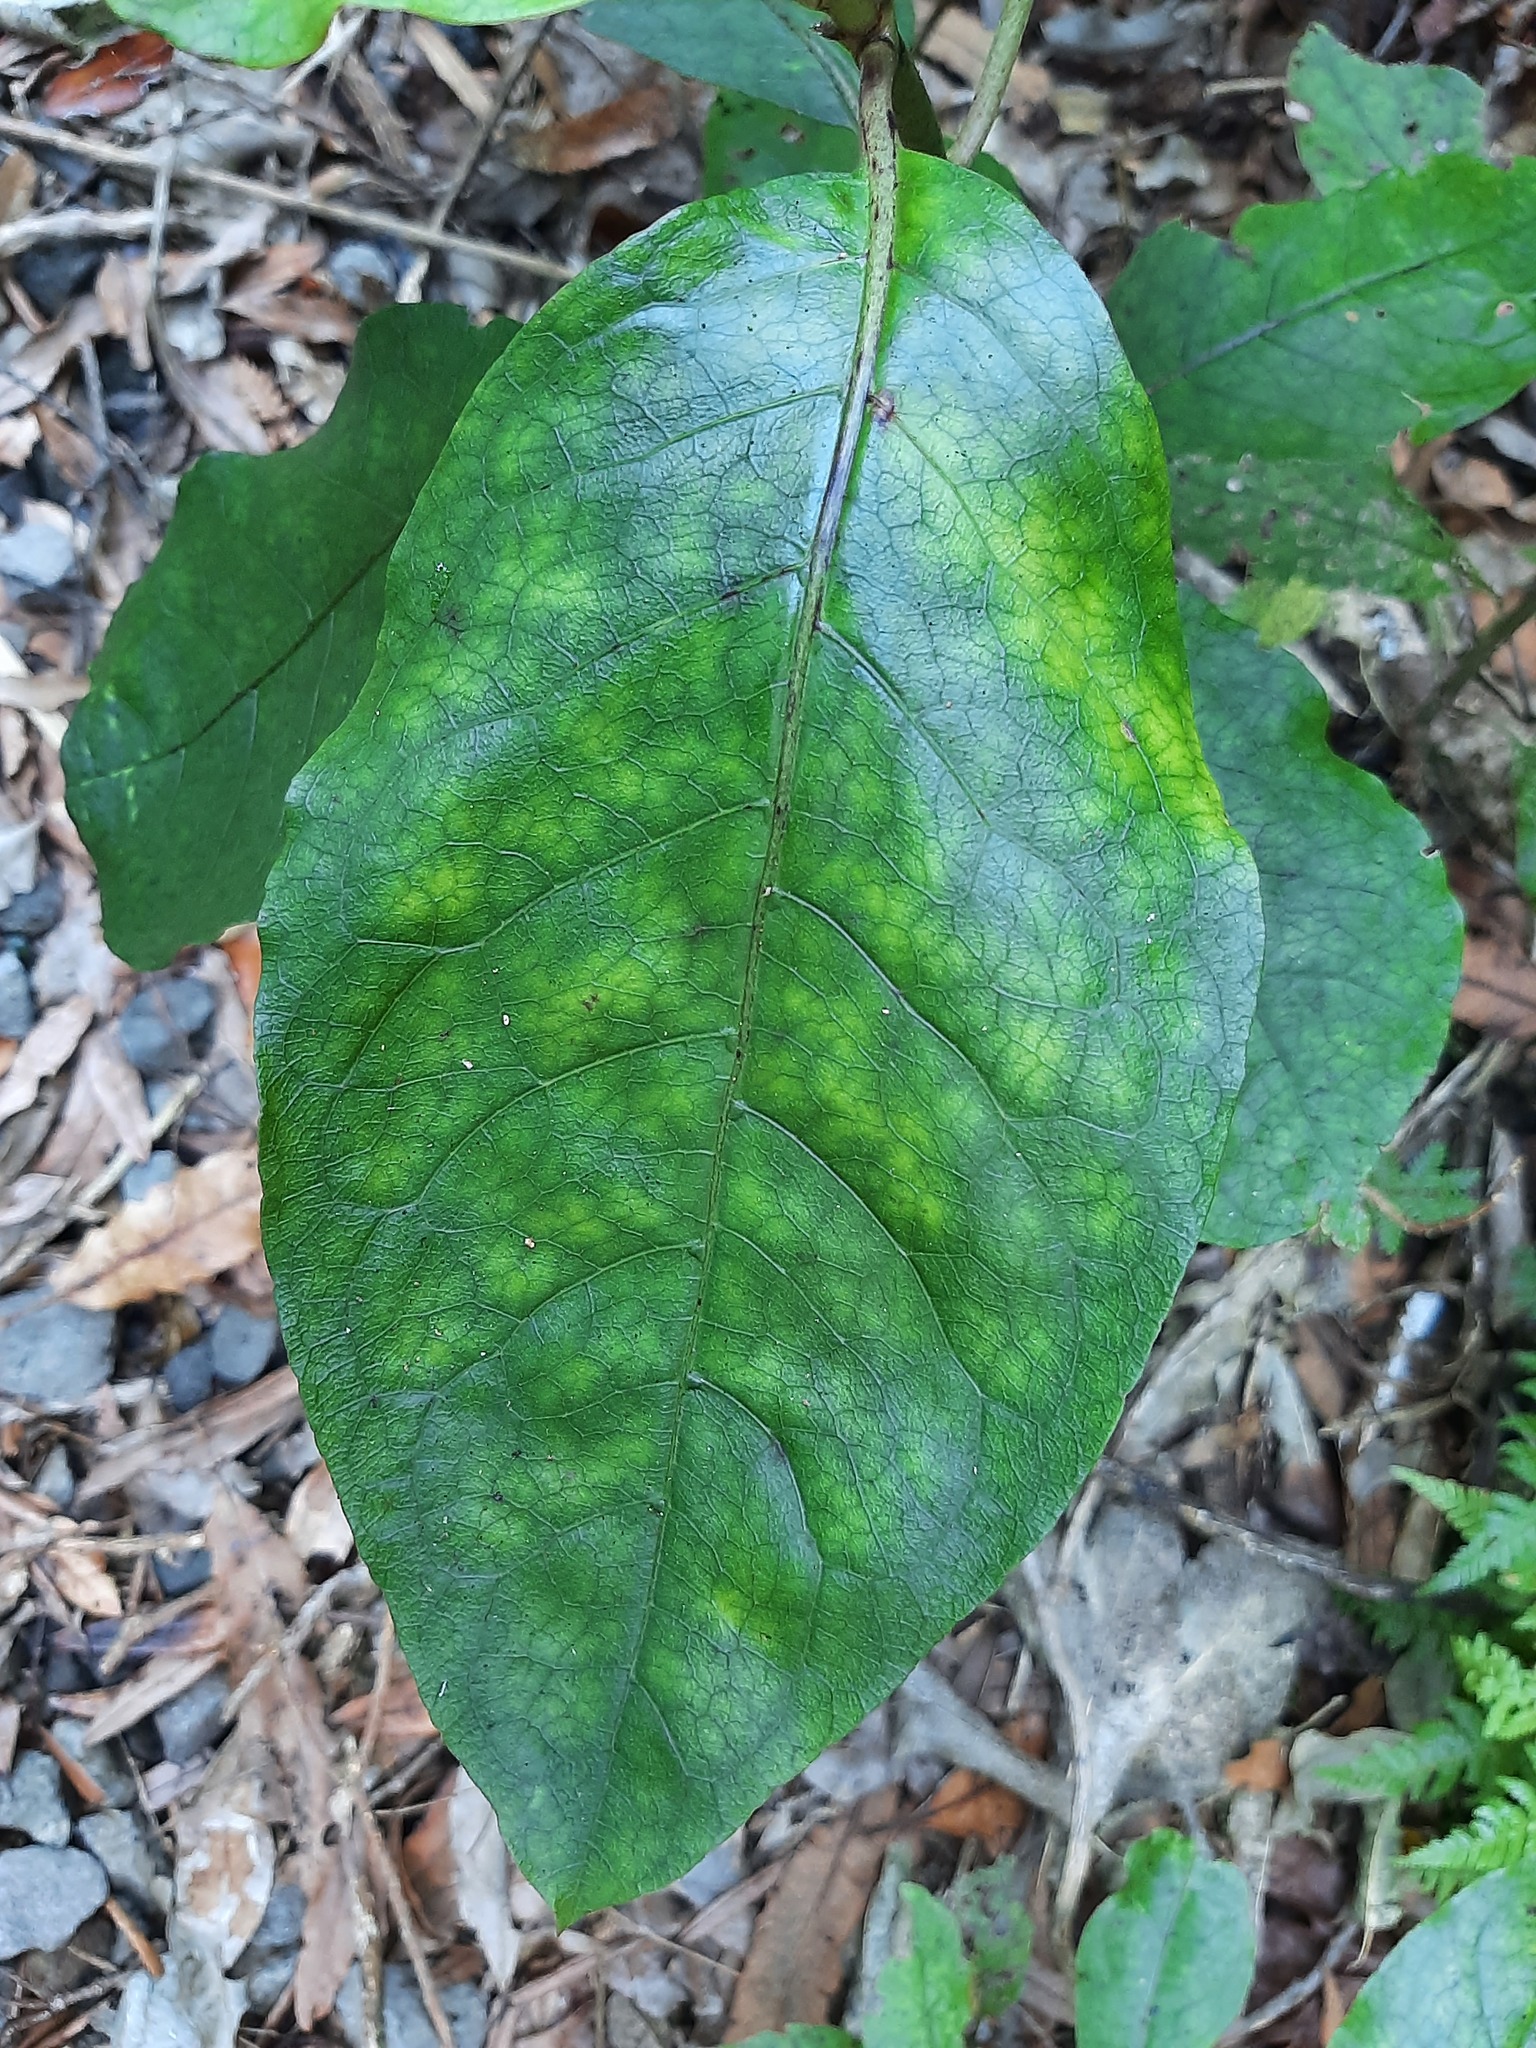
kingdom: Plantae
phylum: Tracheophyta
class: Magnoliopsida
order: Gentianales
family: Rubiaceae
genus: Coprosma
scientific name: Coprosma autumnalis
